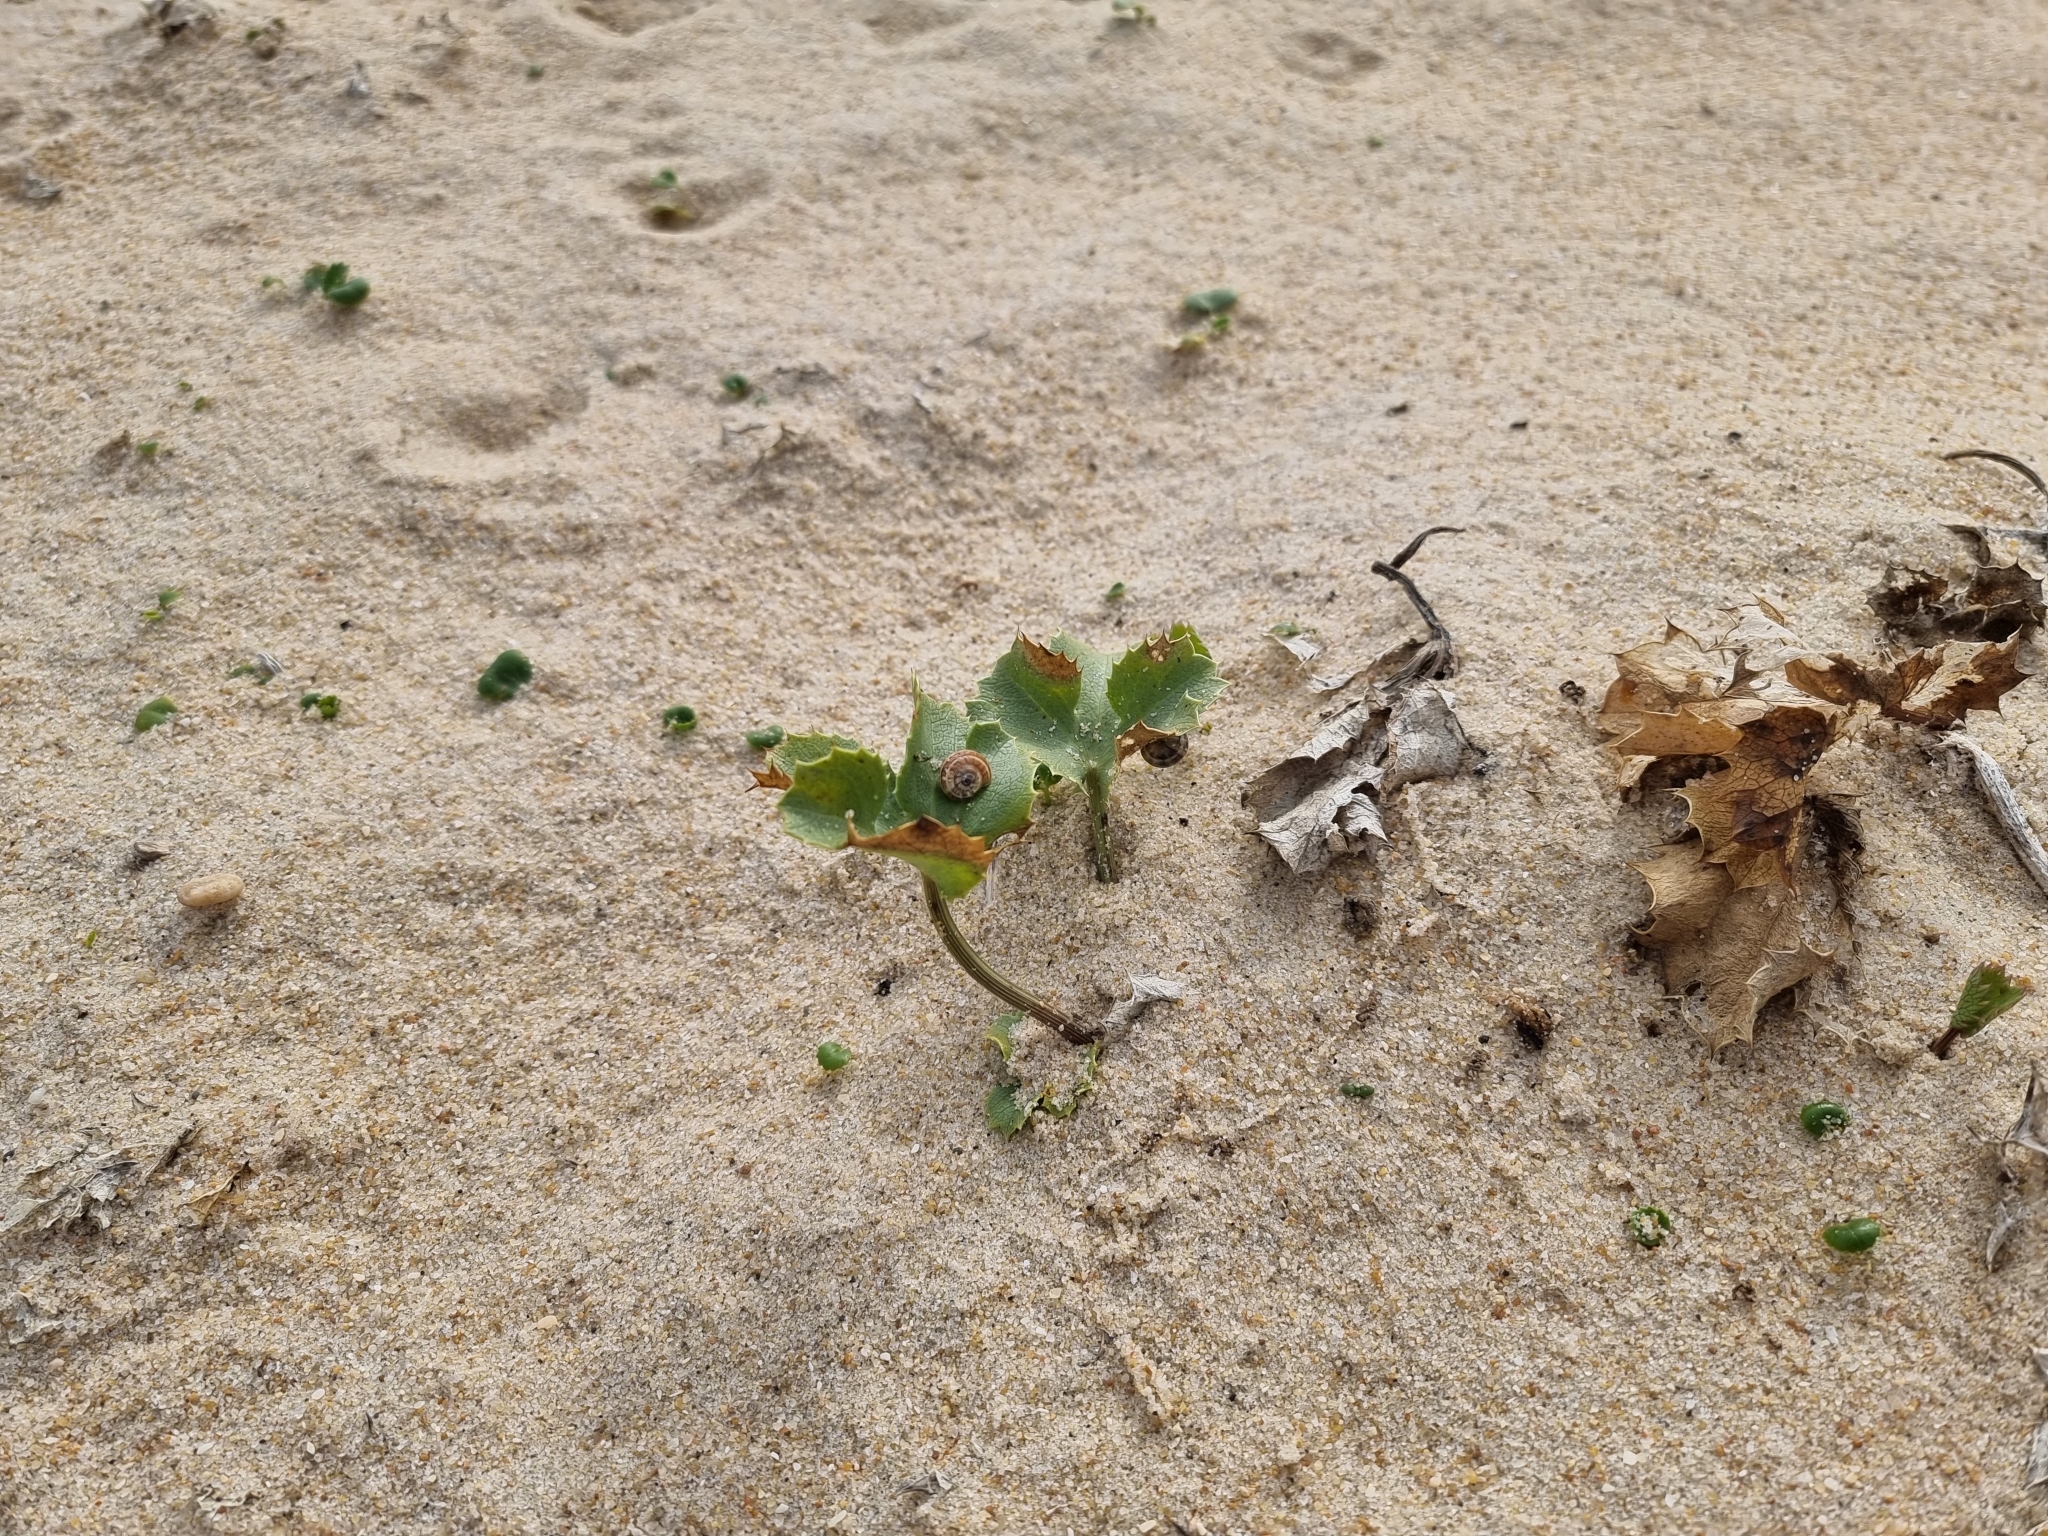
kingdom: Plantae
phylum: Tracheophyta
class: Magnoliopsida
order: Apiales
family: Apiaceae
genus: Eryngium
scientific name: Eryngium maritimum
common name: Sea-holly
